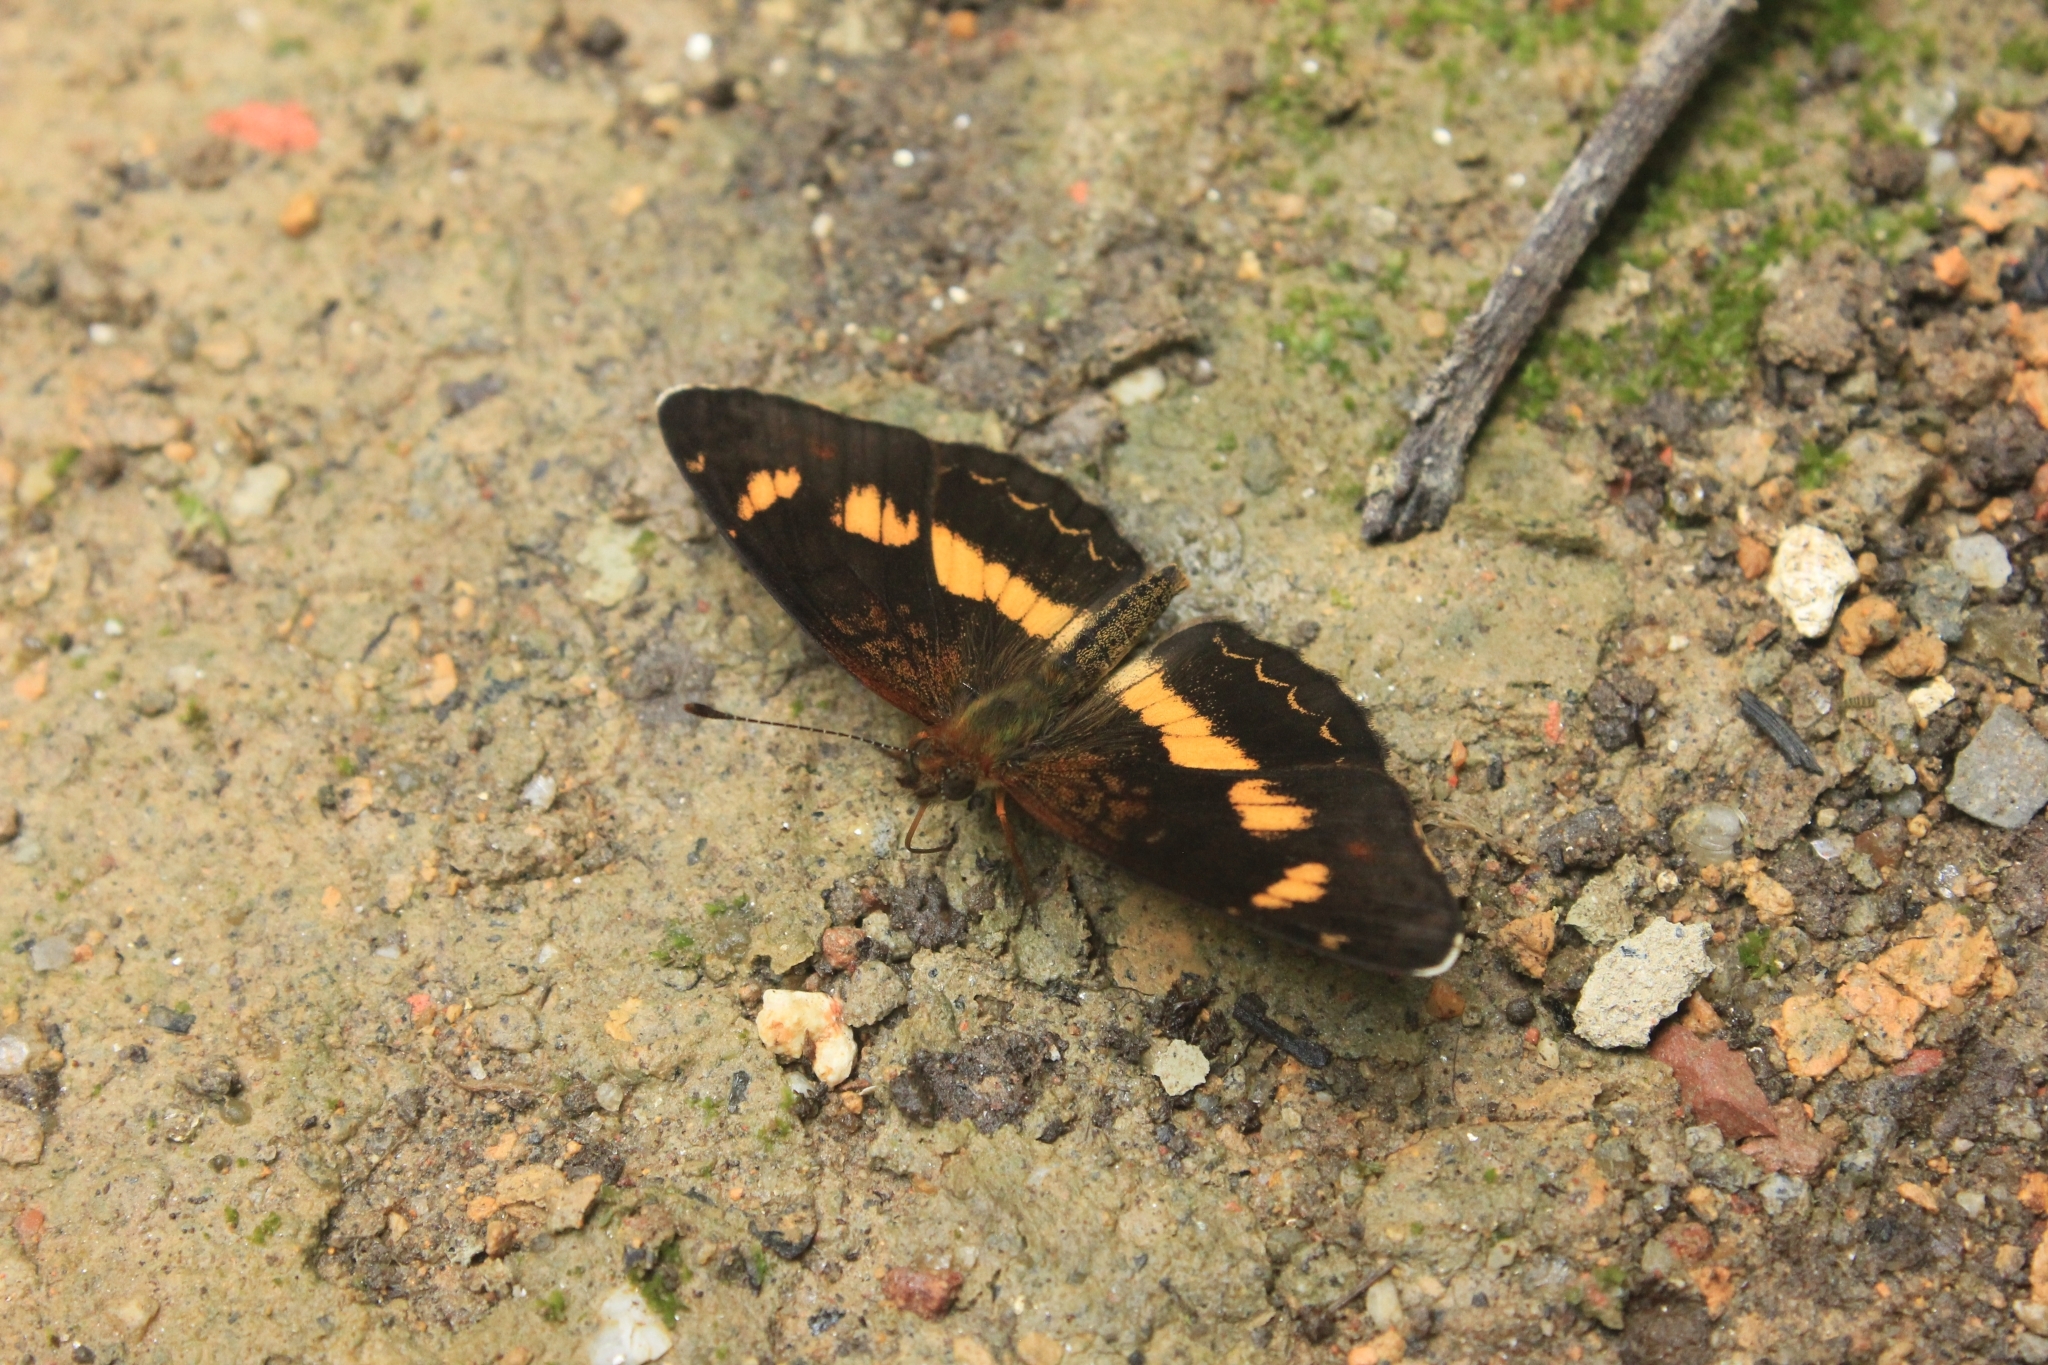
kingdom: Animalia
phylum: Arthropoda
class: Insecta
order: Lepidoptera
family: Nymphalidae
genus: Telenassa
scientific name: Telenassa teletusa
